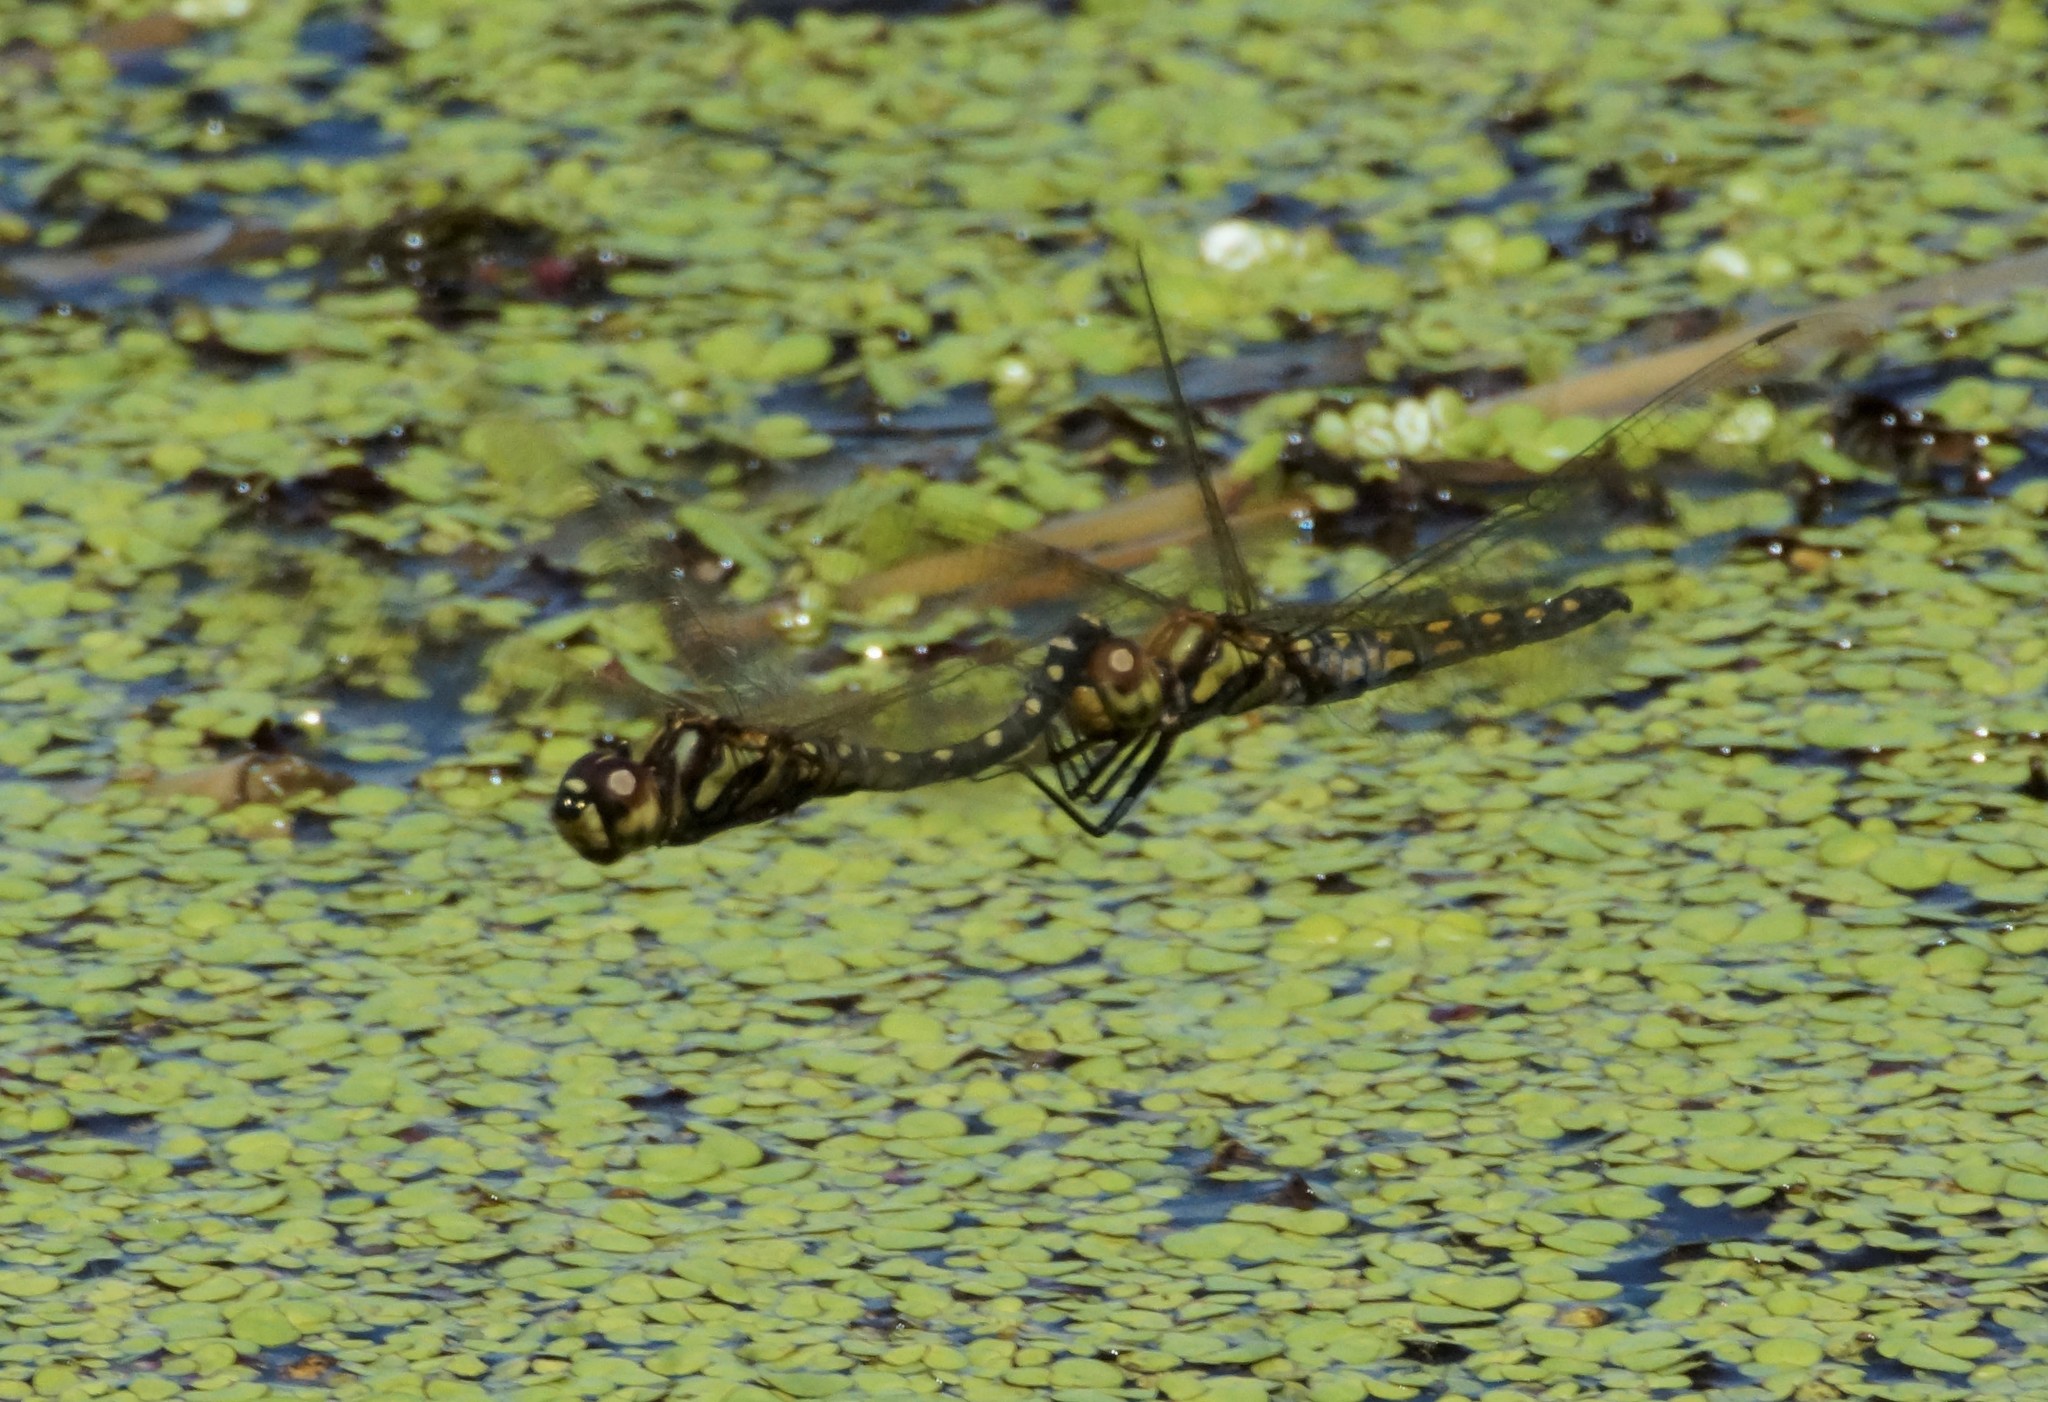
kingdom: Animalia
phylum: Arthropoda
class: Insecta
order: Odonata
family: Libellulidae
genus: Hydrobasileus
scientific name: Hydrobasileus brevistylus
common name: Water prince
